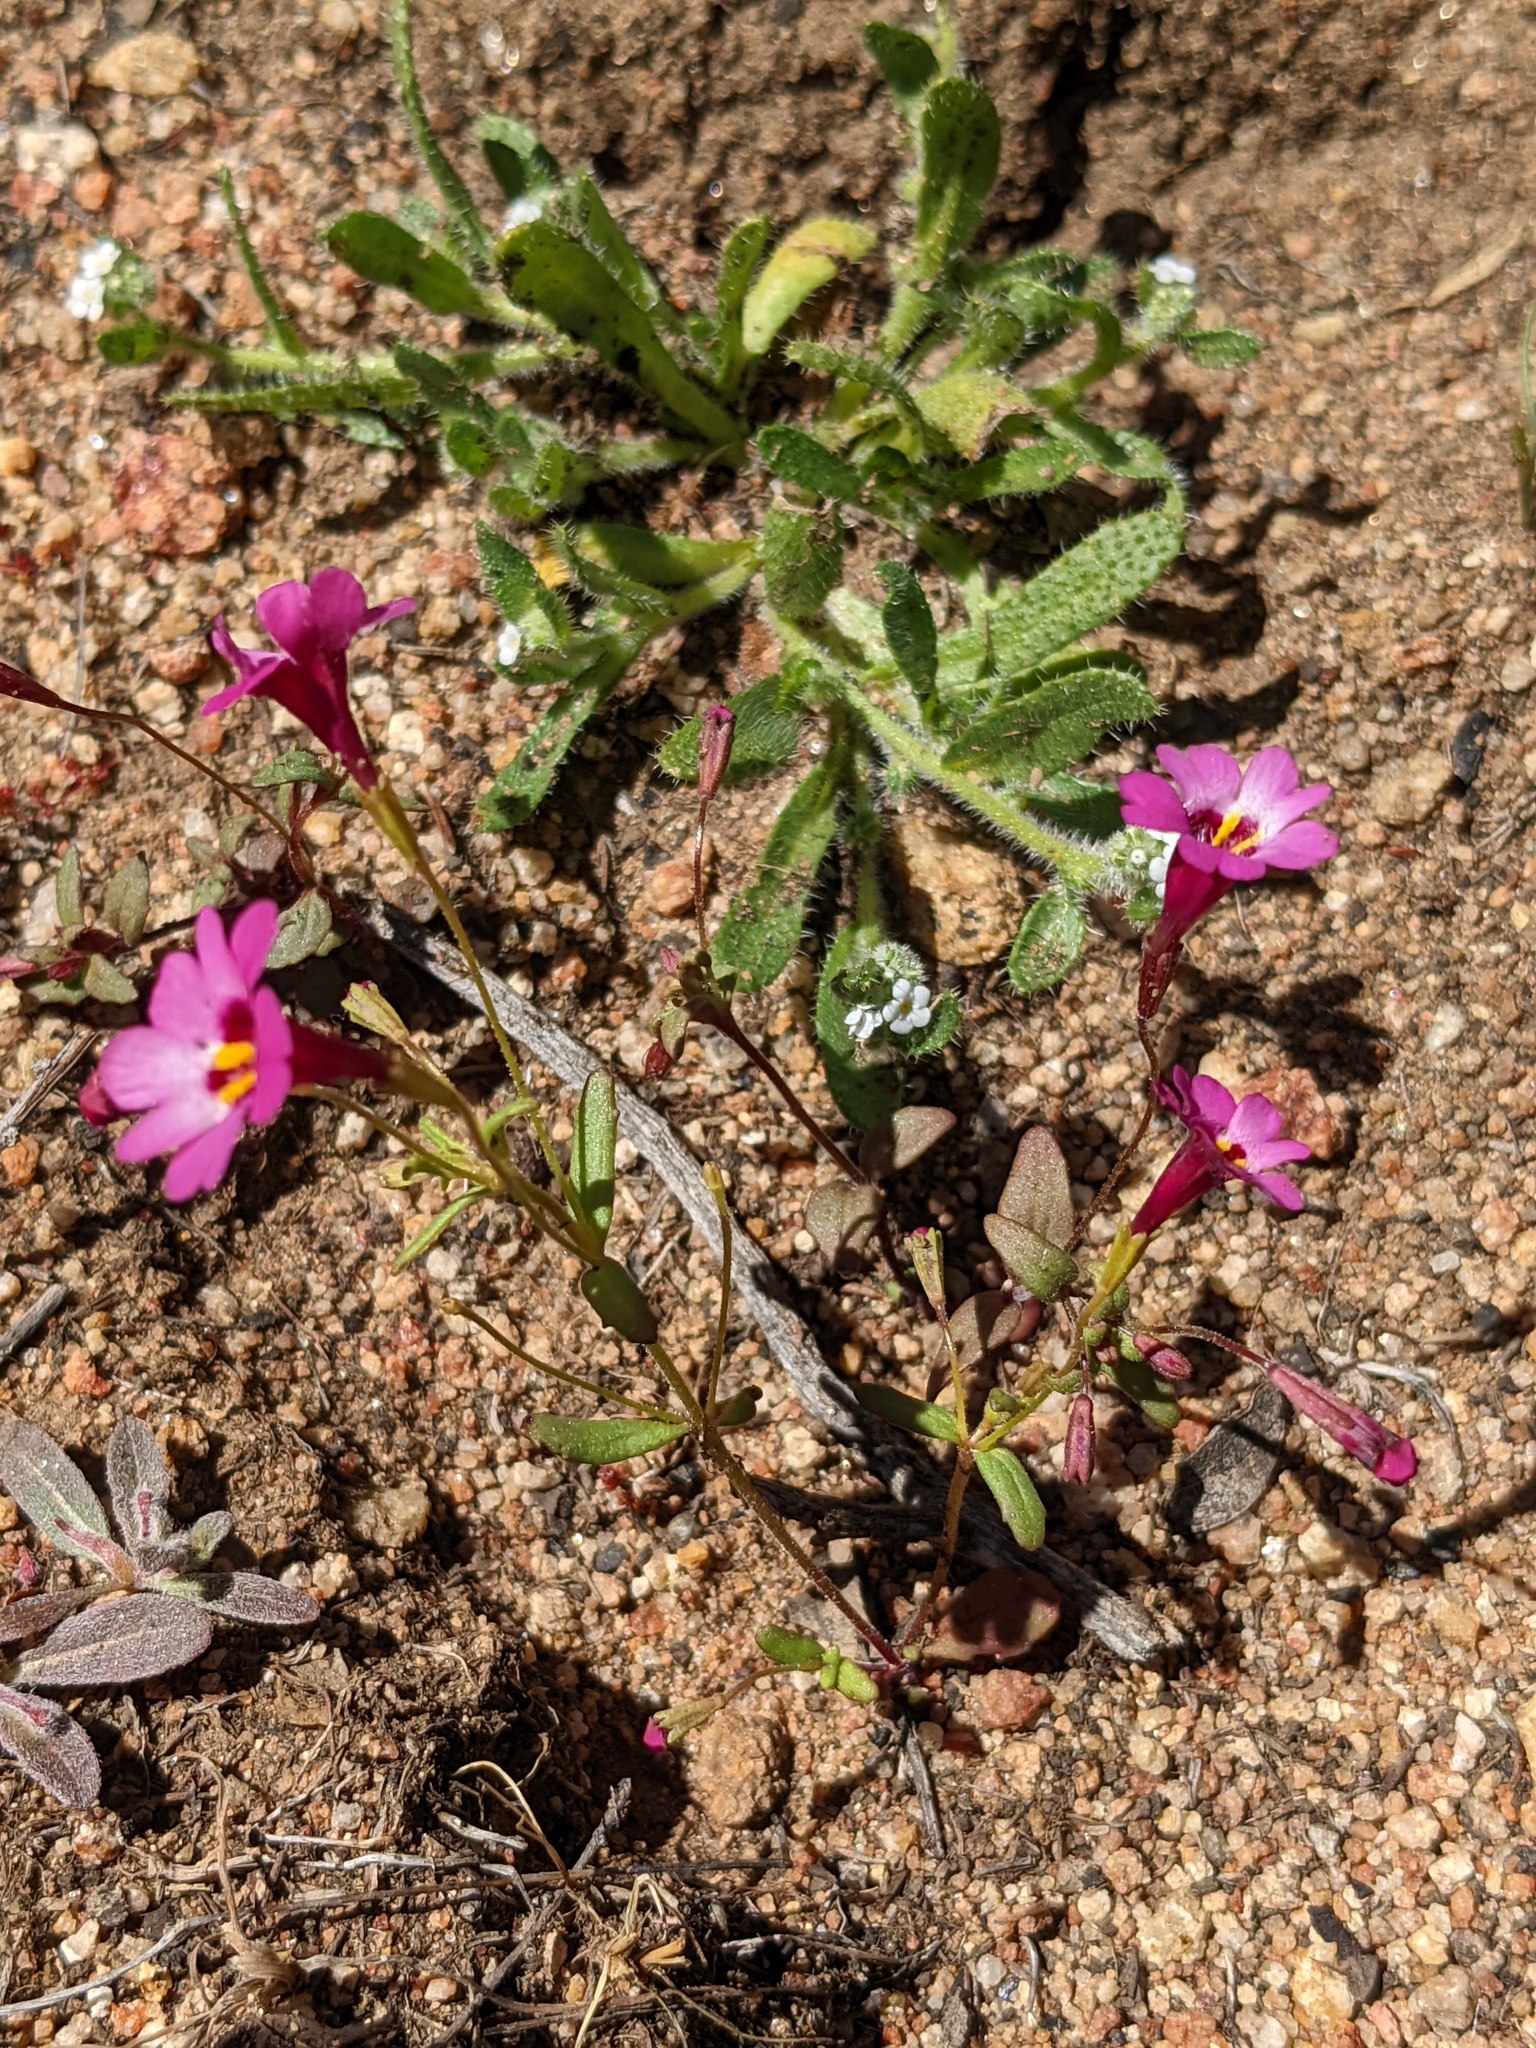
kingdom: Plantae
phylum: Tracheophyta
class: Magnoliopsida
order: Lamiales
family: Phrymaceae
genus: Erythranthe
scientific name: Erythranthe diffusa
